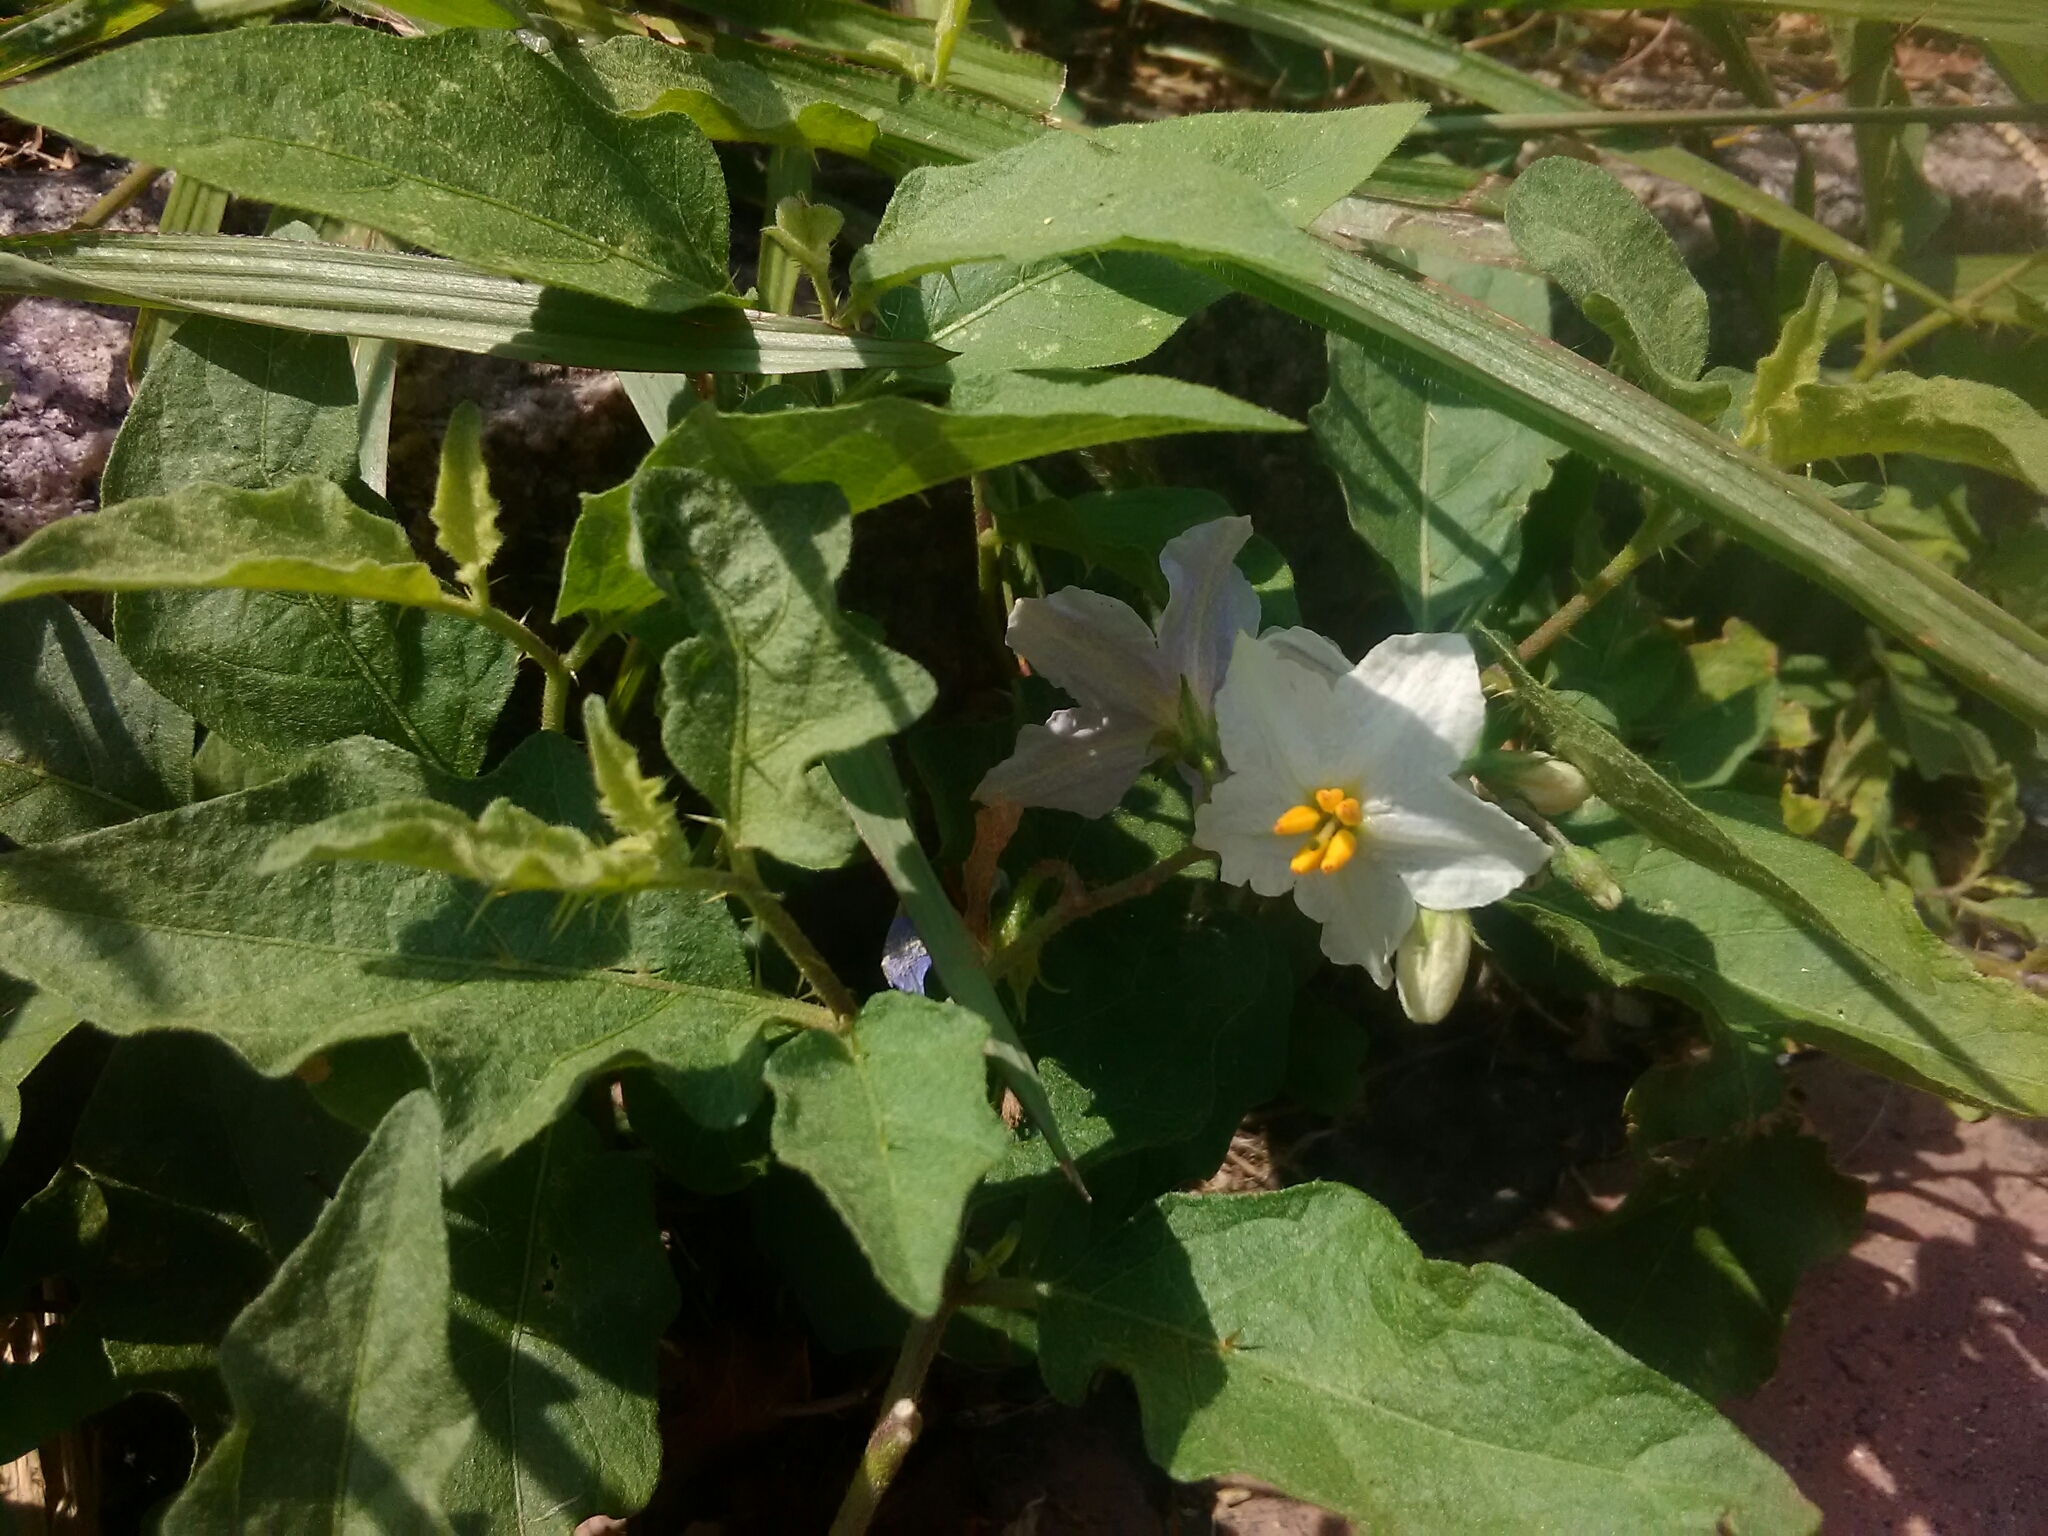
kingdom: Plantae
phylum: Tracheophyta
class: Magnoliopsida
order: Solanales
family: Solanaceae
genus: Solanum
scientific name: Solanum carolinense
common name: Horse-nettle
